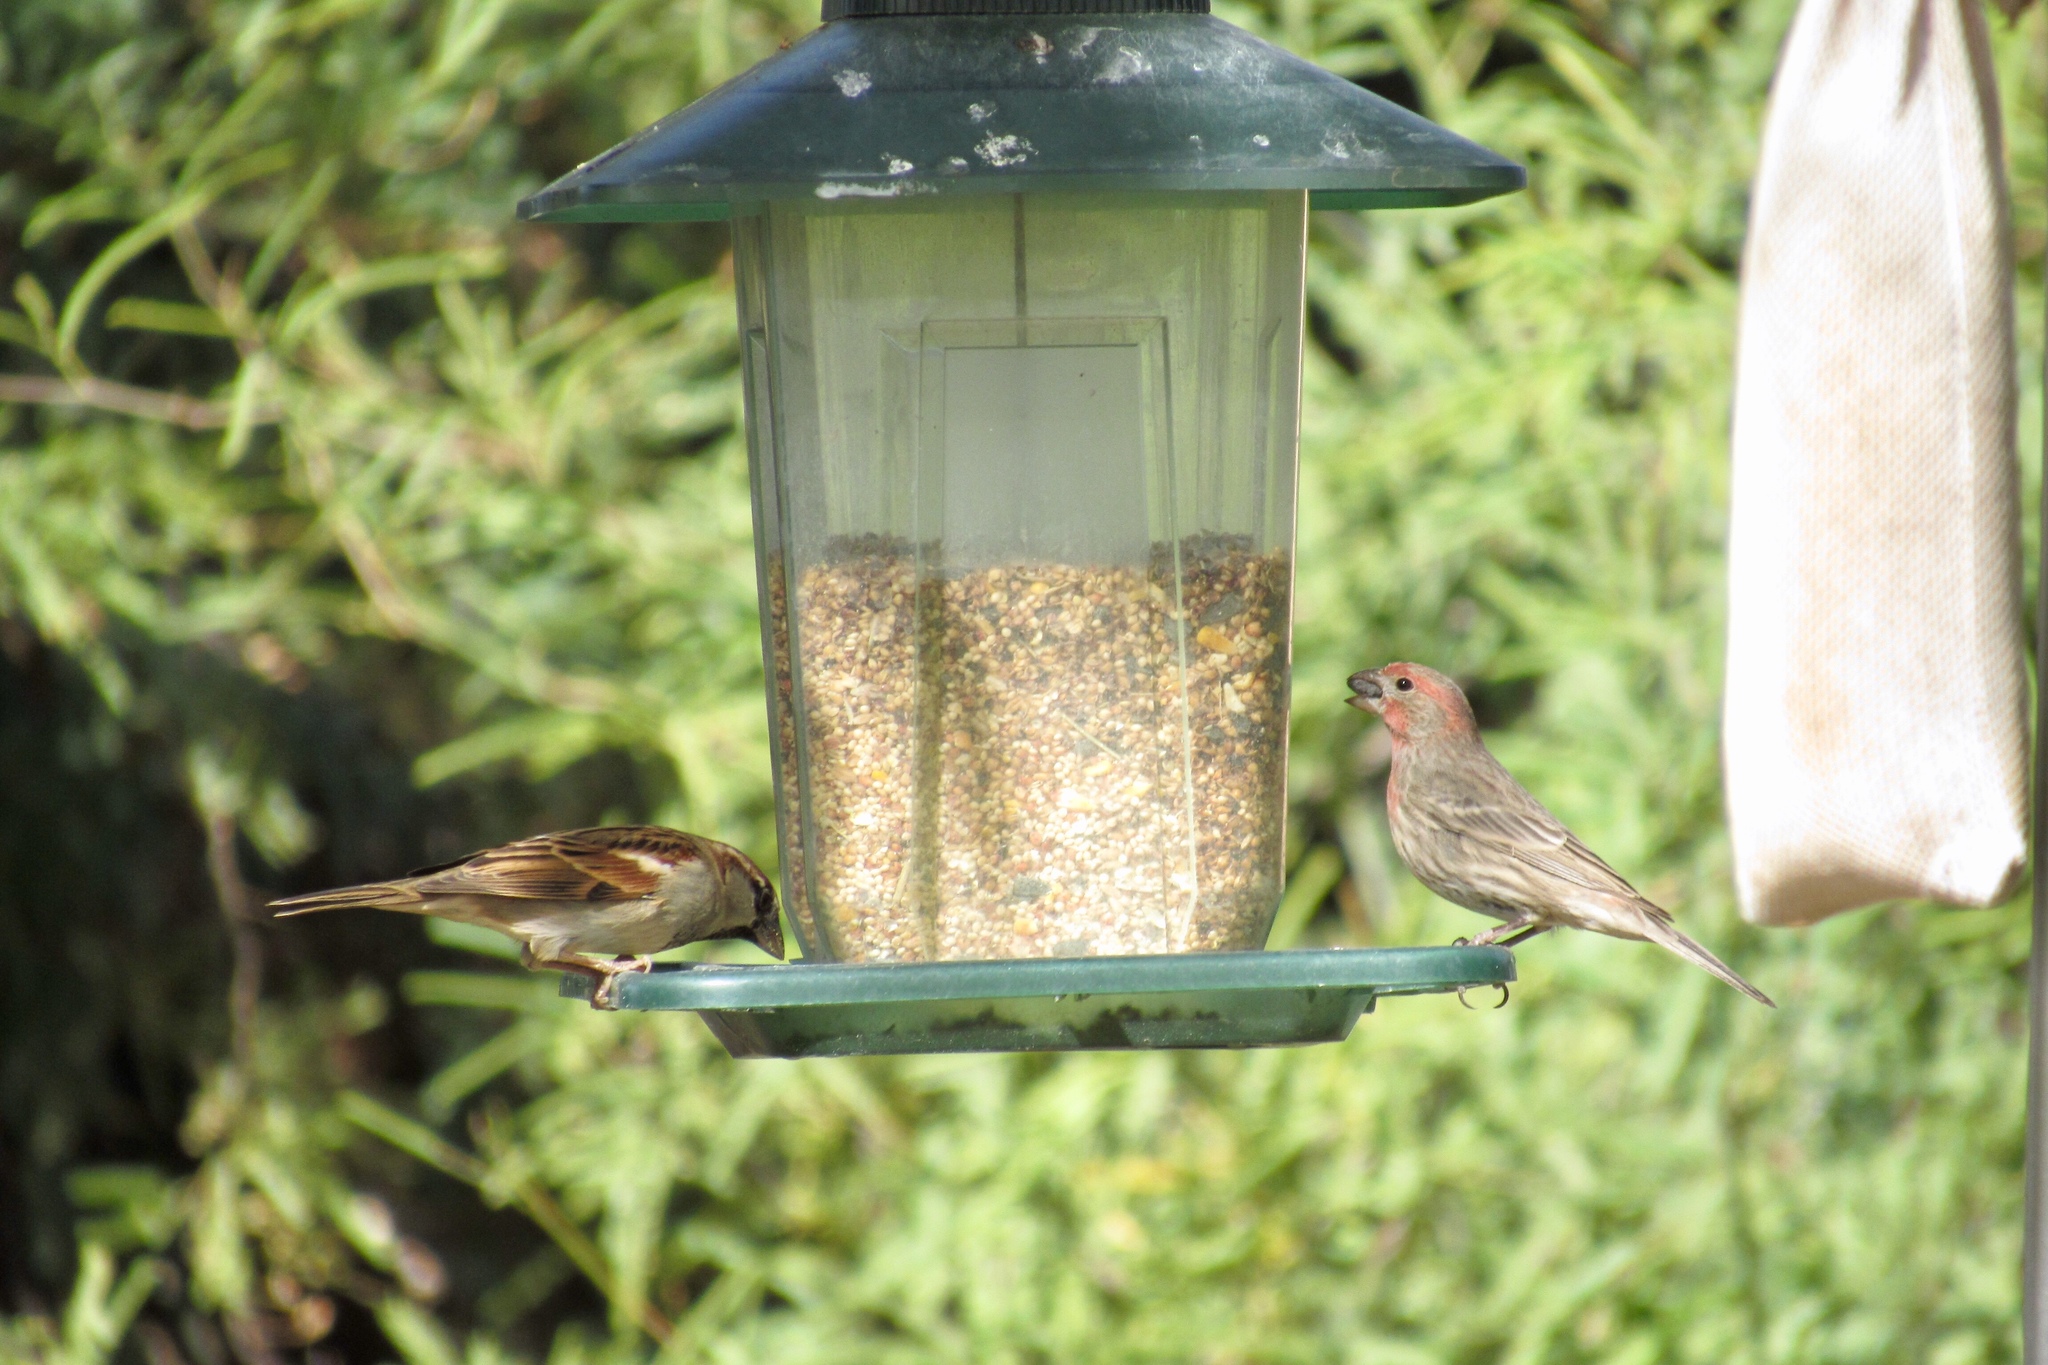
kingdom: Animalia
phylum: Chordata
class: Aves
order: Passeriformes
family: Fringillidae
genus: Haemorhous
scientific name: Haemorhous mexicanus
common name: House finch
